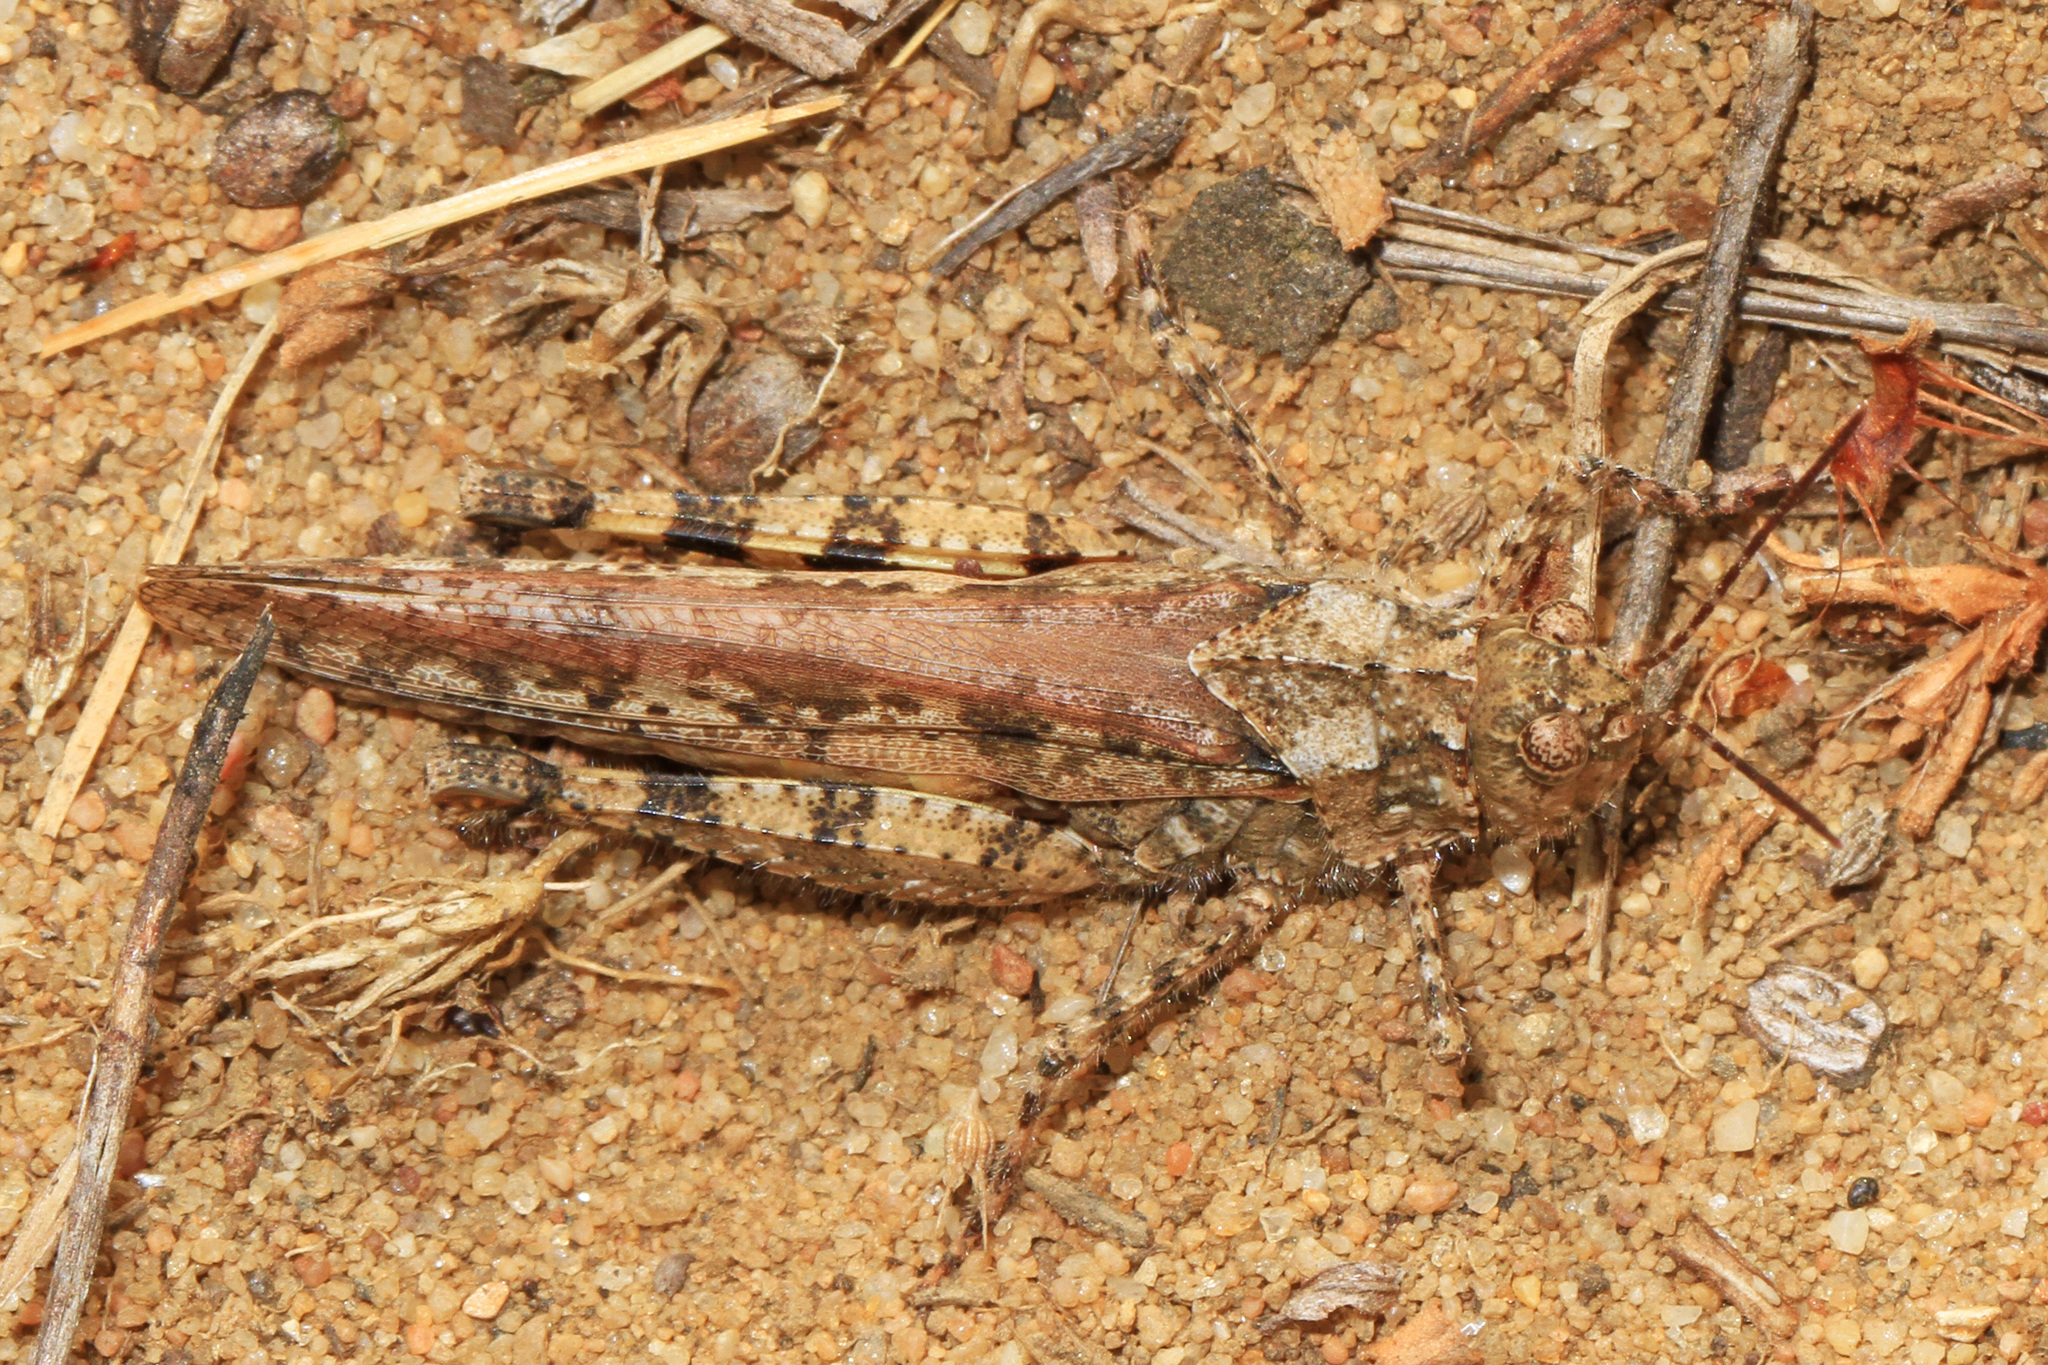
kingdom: Animalia
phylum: Arthropoda
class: Insecta
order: Orthoptera
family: Acrididae
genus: Spharagemon
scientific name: Spharagemon collare
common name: Mottled sand grasshopper
